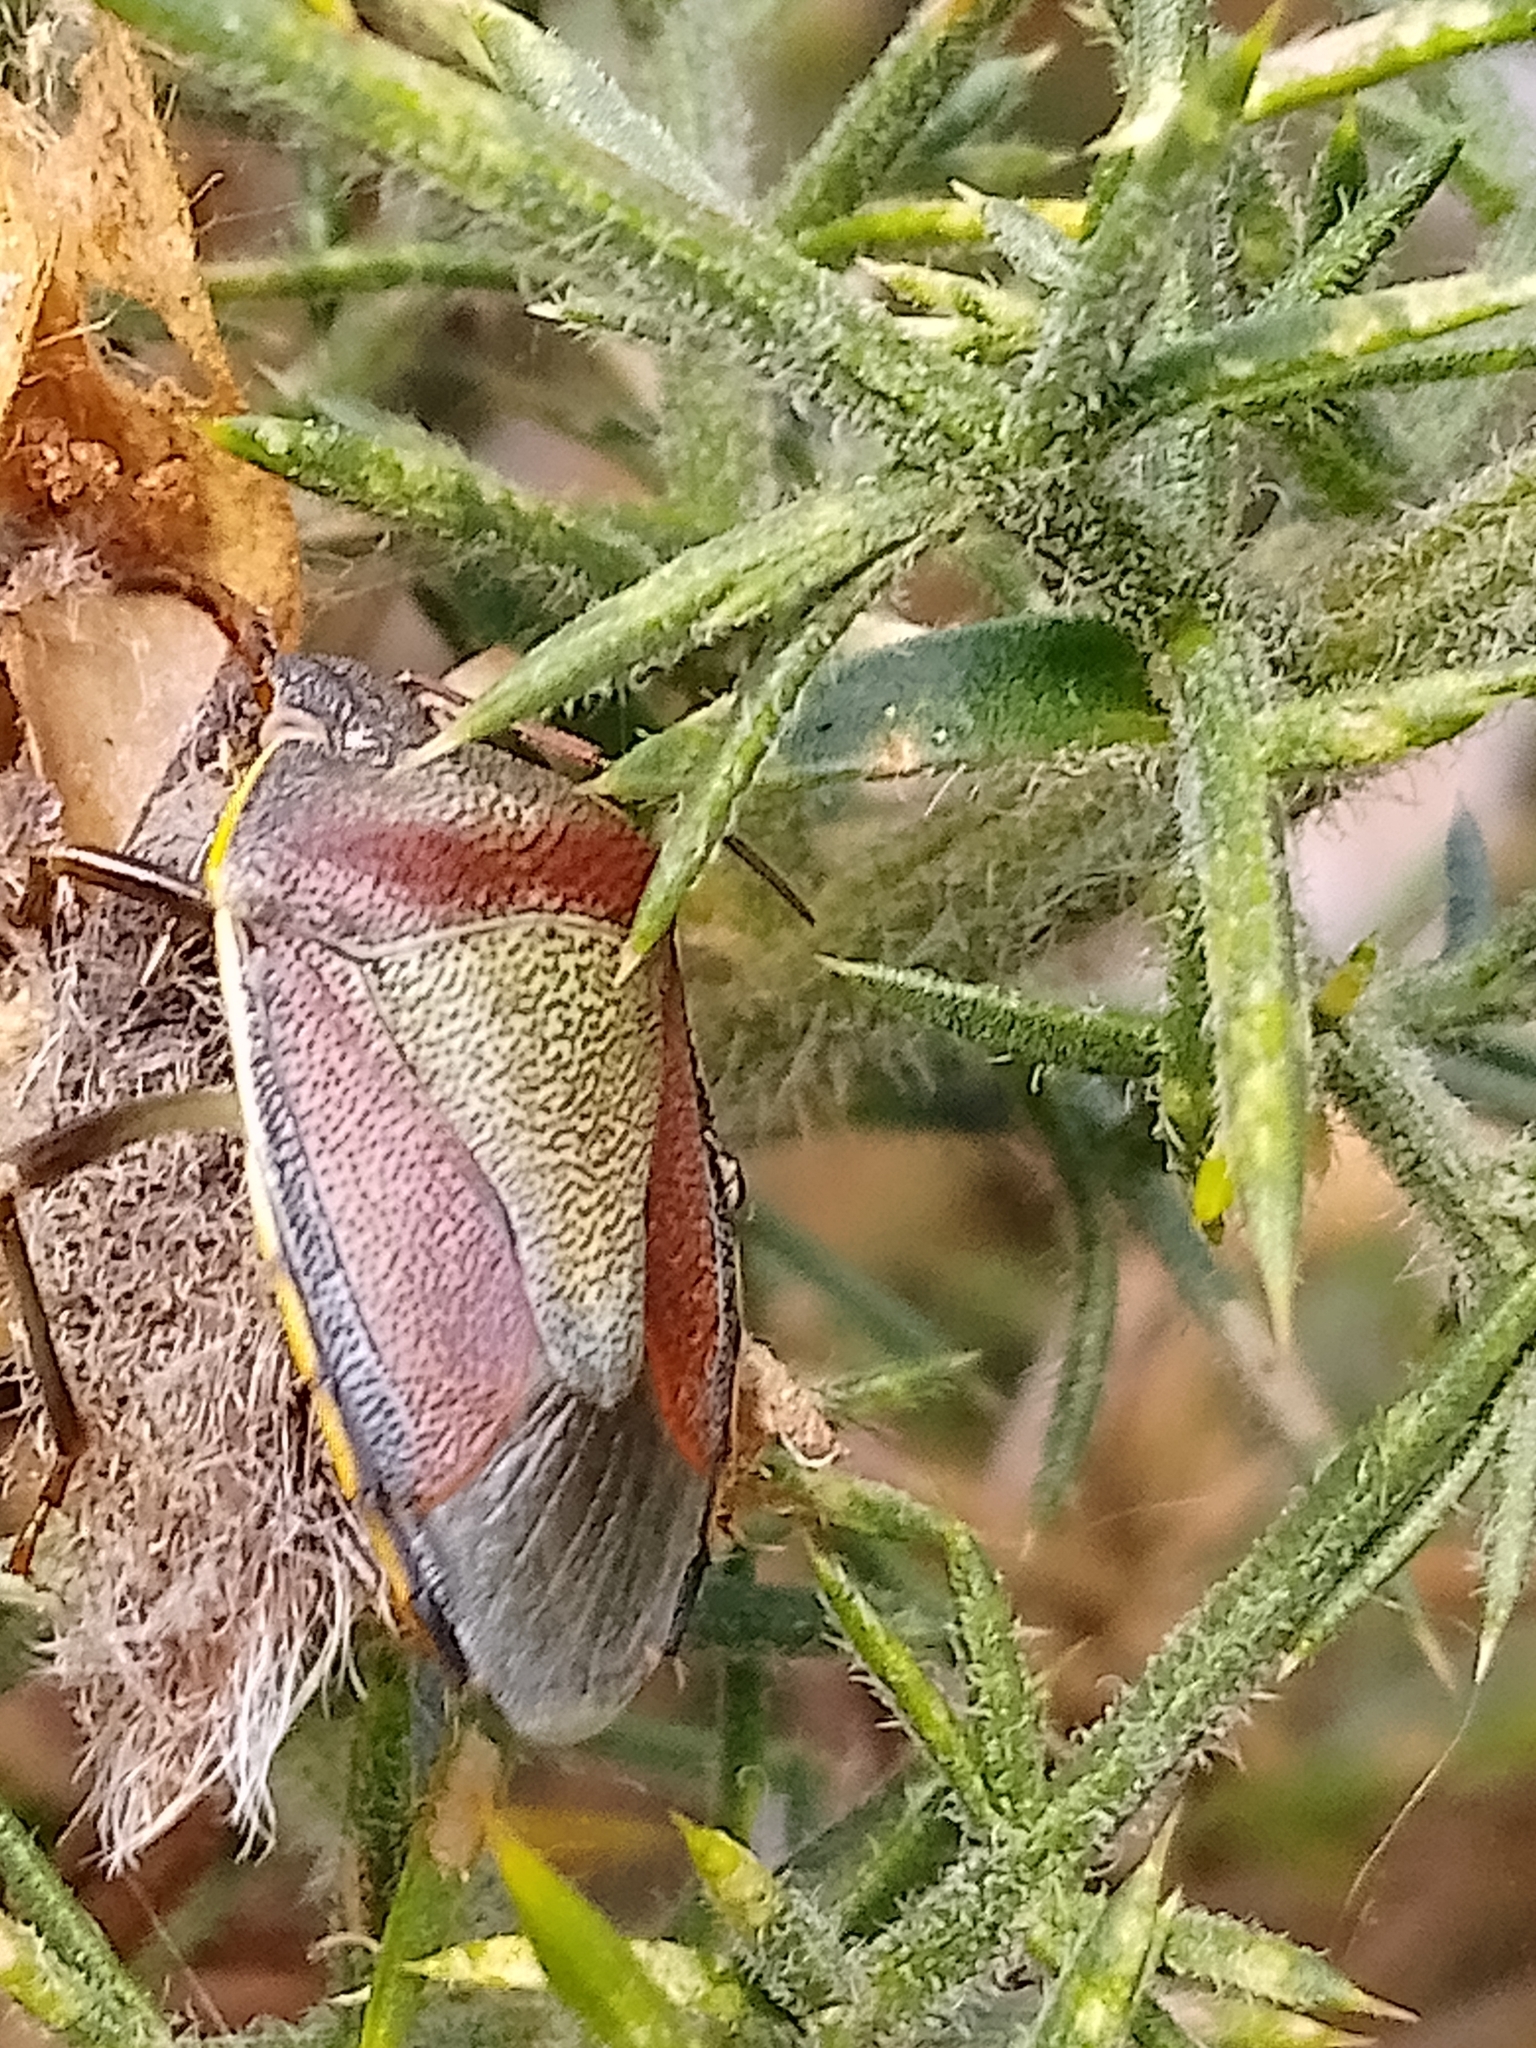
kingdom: Animalia
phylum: Arthropoda
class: Insecta
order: Hemiptera
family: Pentatomidae
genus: Piezodorus
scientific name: Piezodorus lituratus
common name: Stink bug
